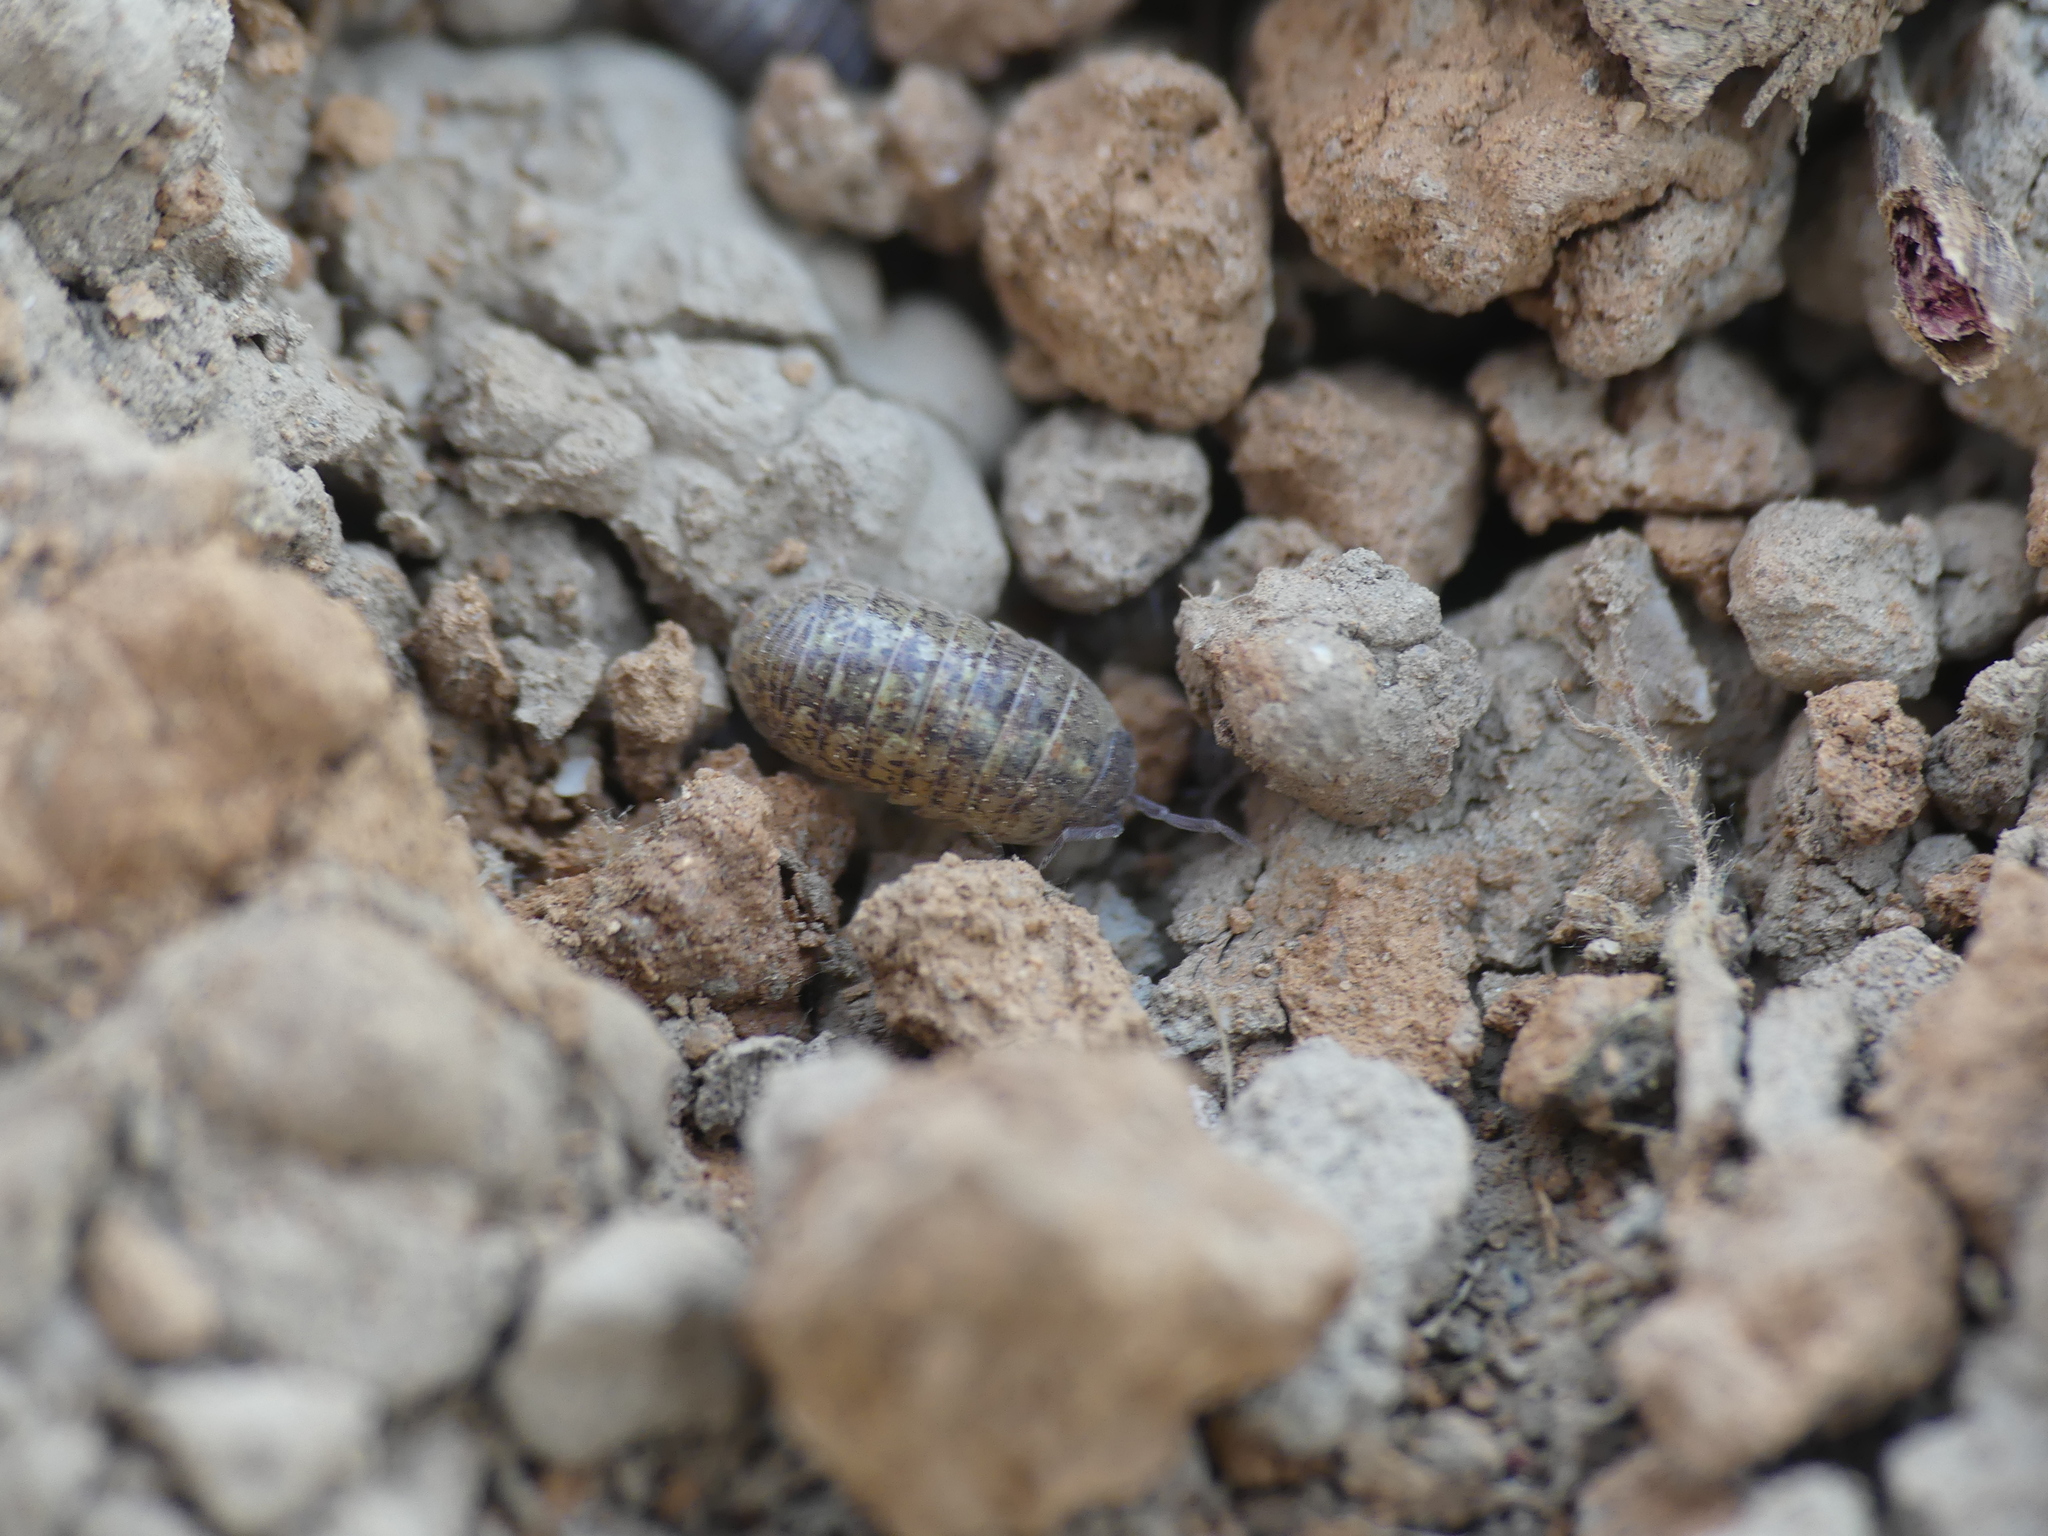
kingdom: Animalia
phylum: Arthropoda
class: Malacostraca
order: Isopoda
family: Armadillidiidae
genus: Armadillidium
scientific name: Armadillidium arcangelii
